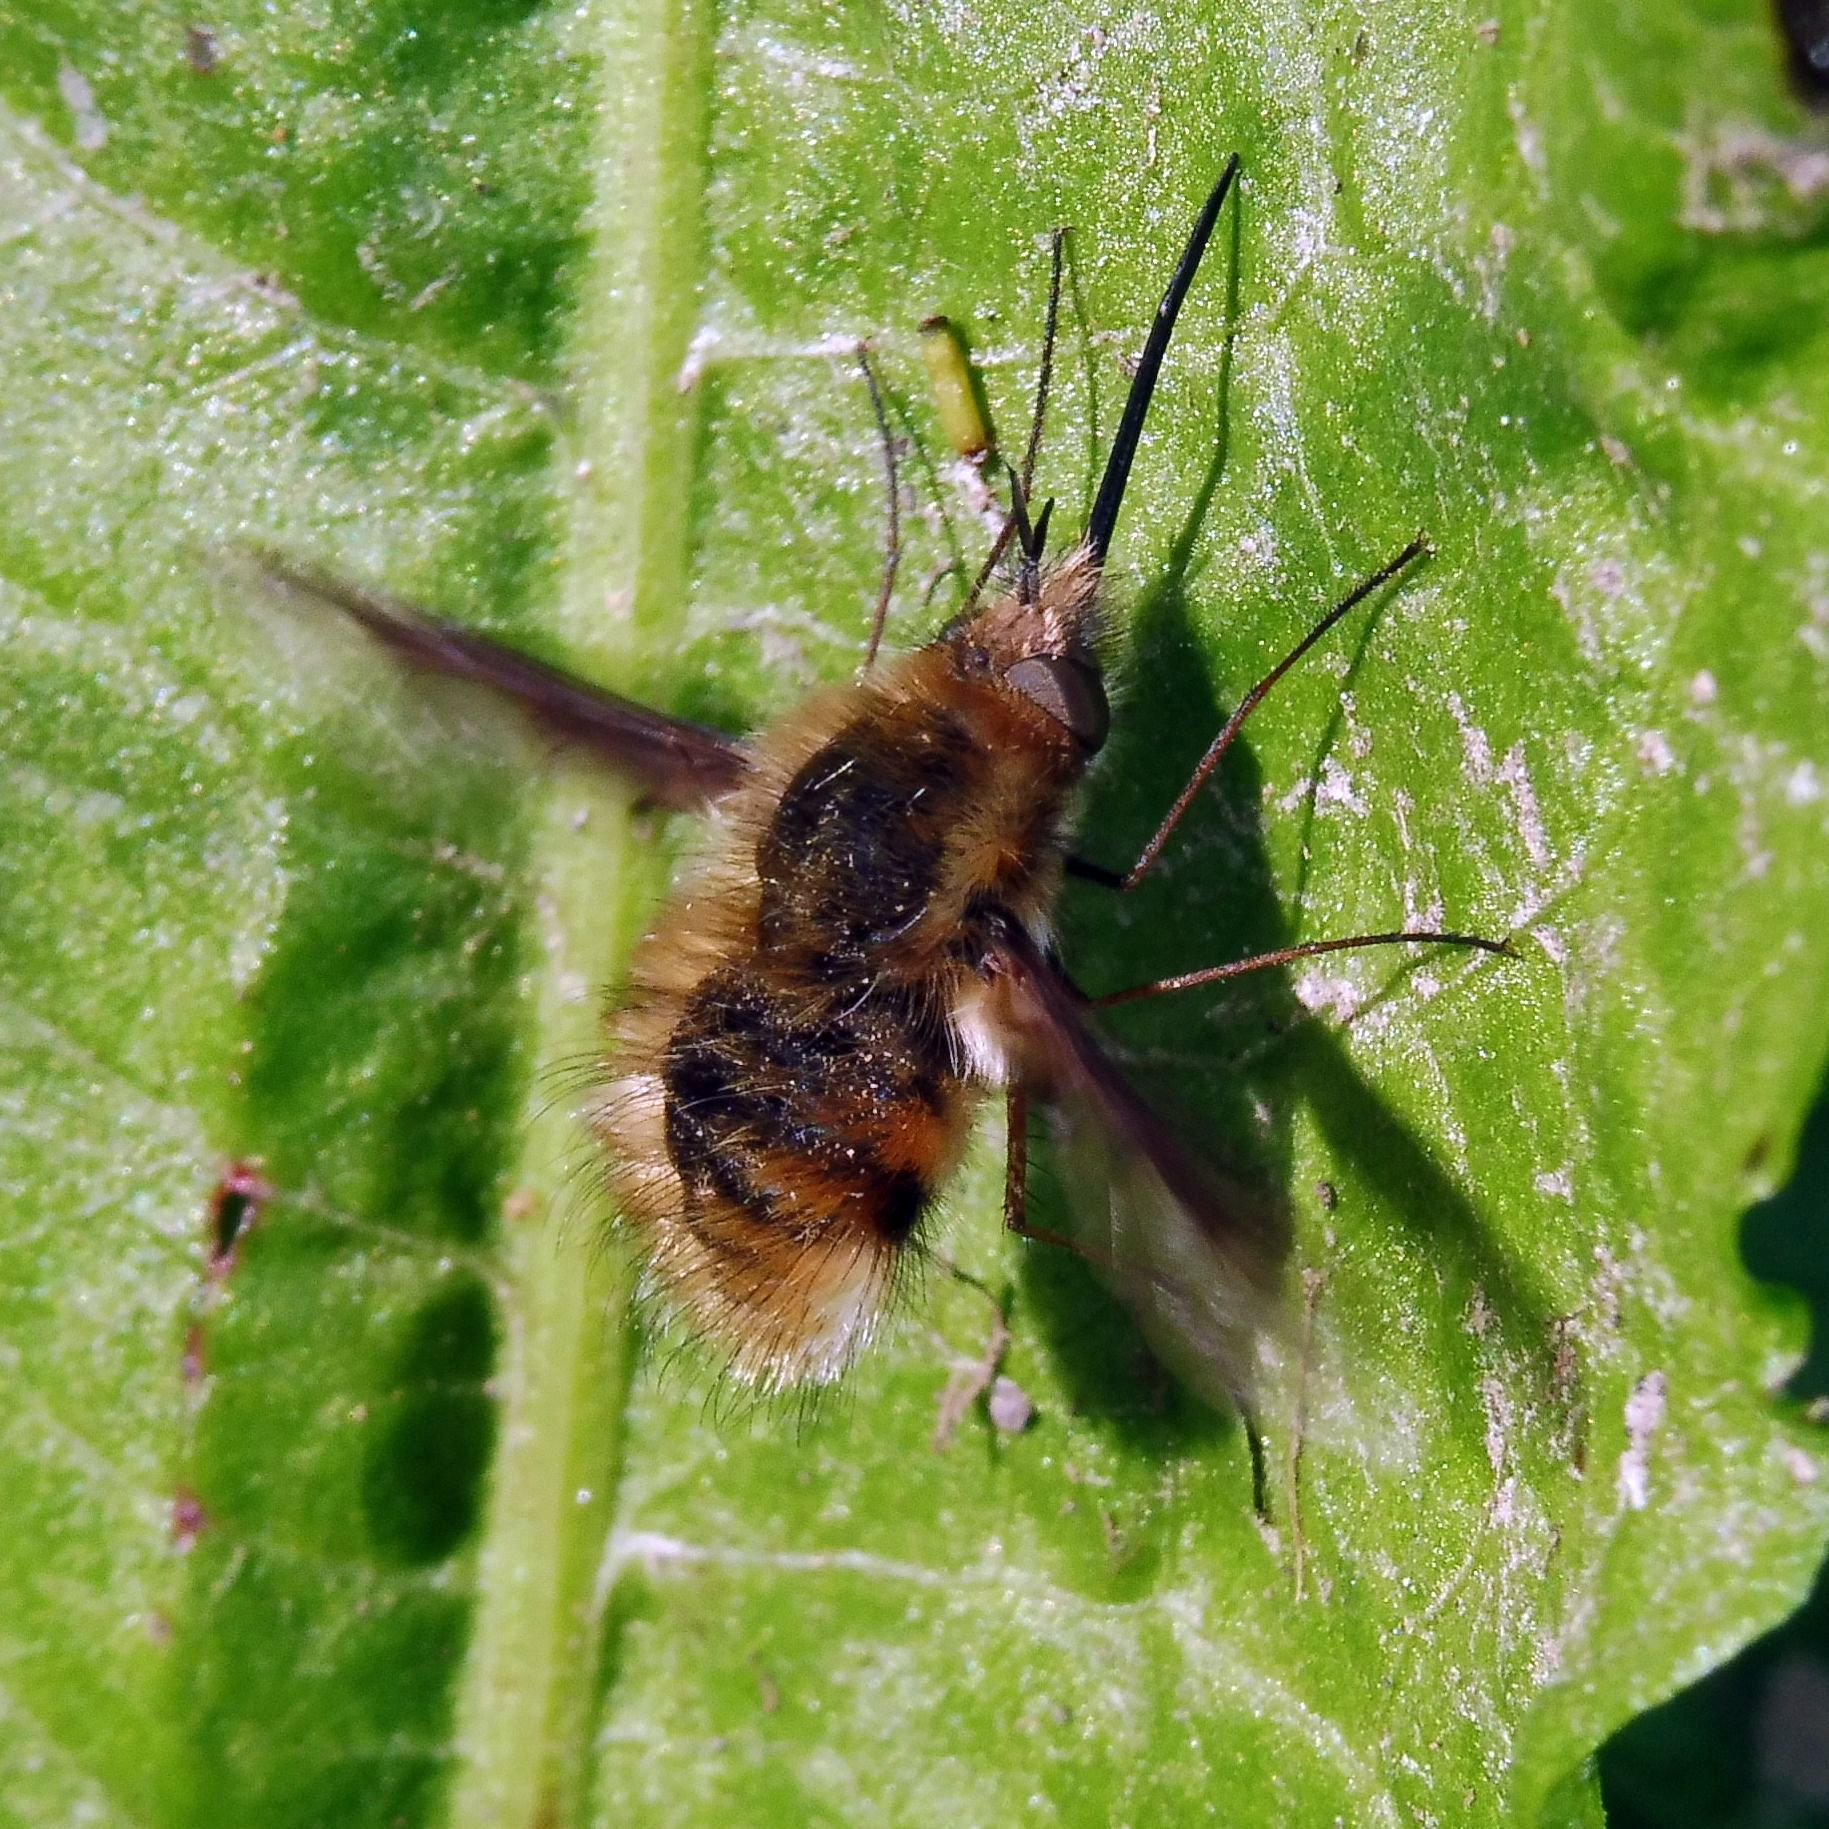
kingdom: Animalia
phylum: Arthropoda
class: Insecta
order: Diptera
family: Bombyliidae
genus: Bombylius
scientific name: Bombylius major
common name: Bee fly
